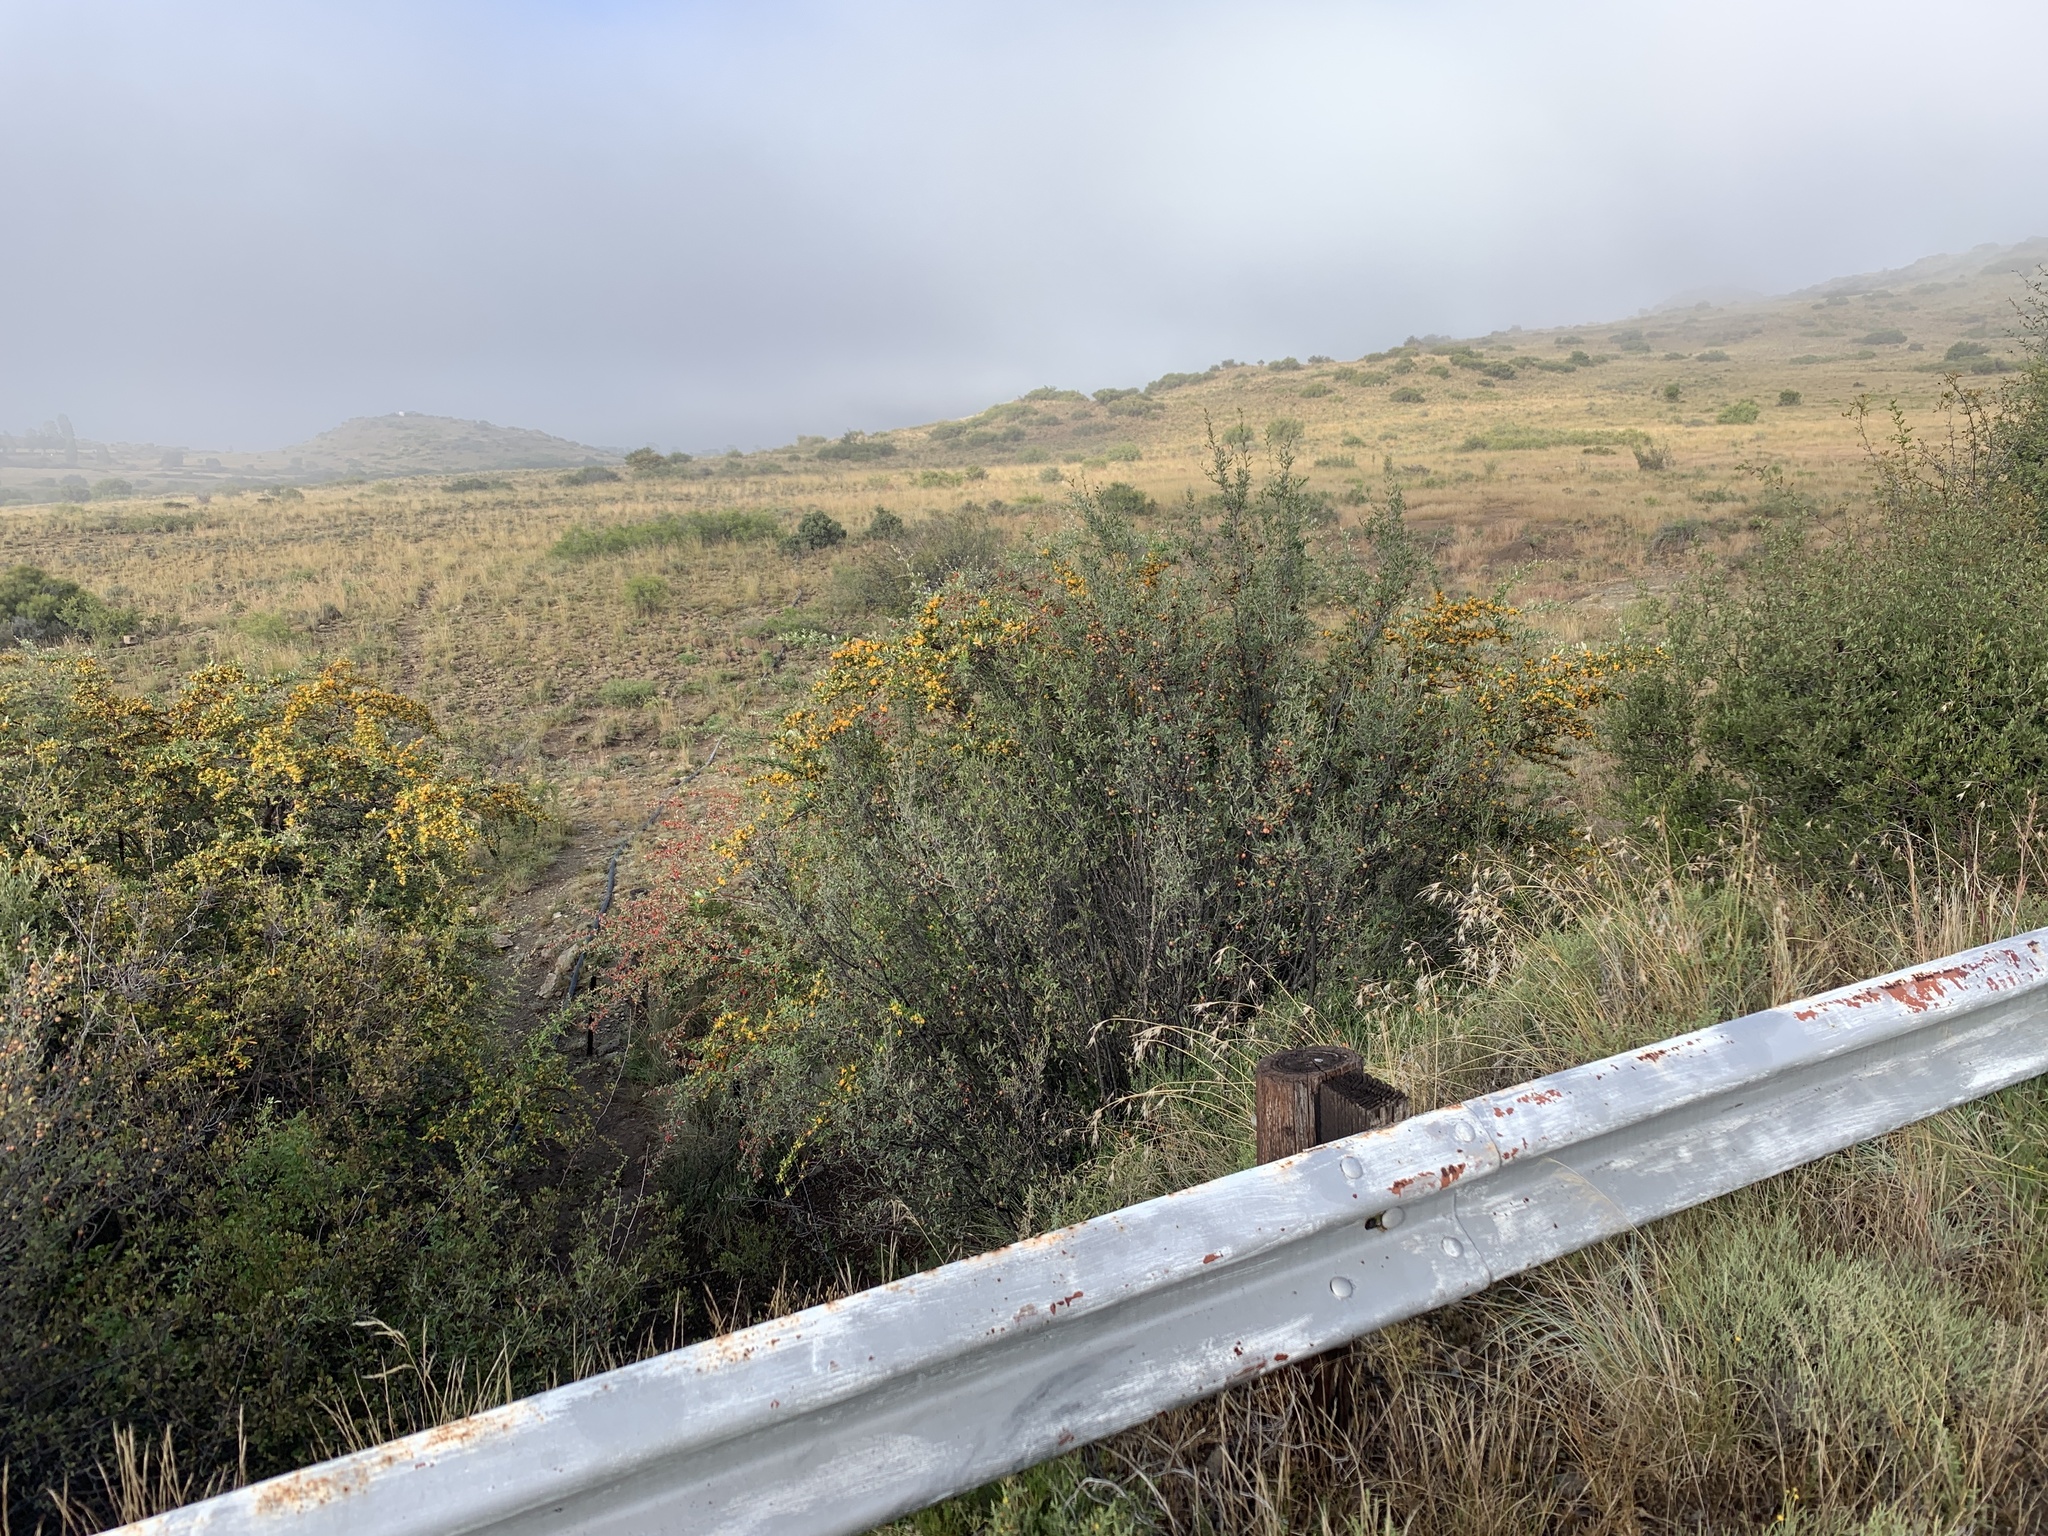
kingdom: Plantae
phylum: Tracheophyta
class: Magnoliopsida
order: Rosales
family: Rosaceae
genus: Pyracantha
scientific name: Pyracantha angustifolia
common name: Narrowleaf firethorn
